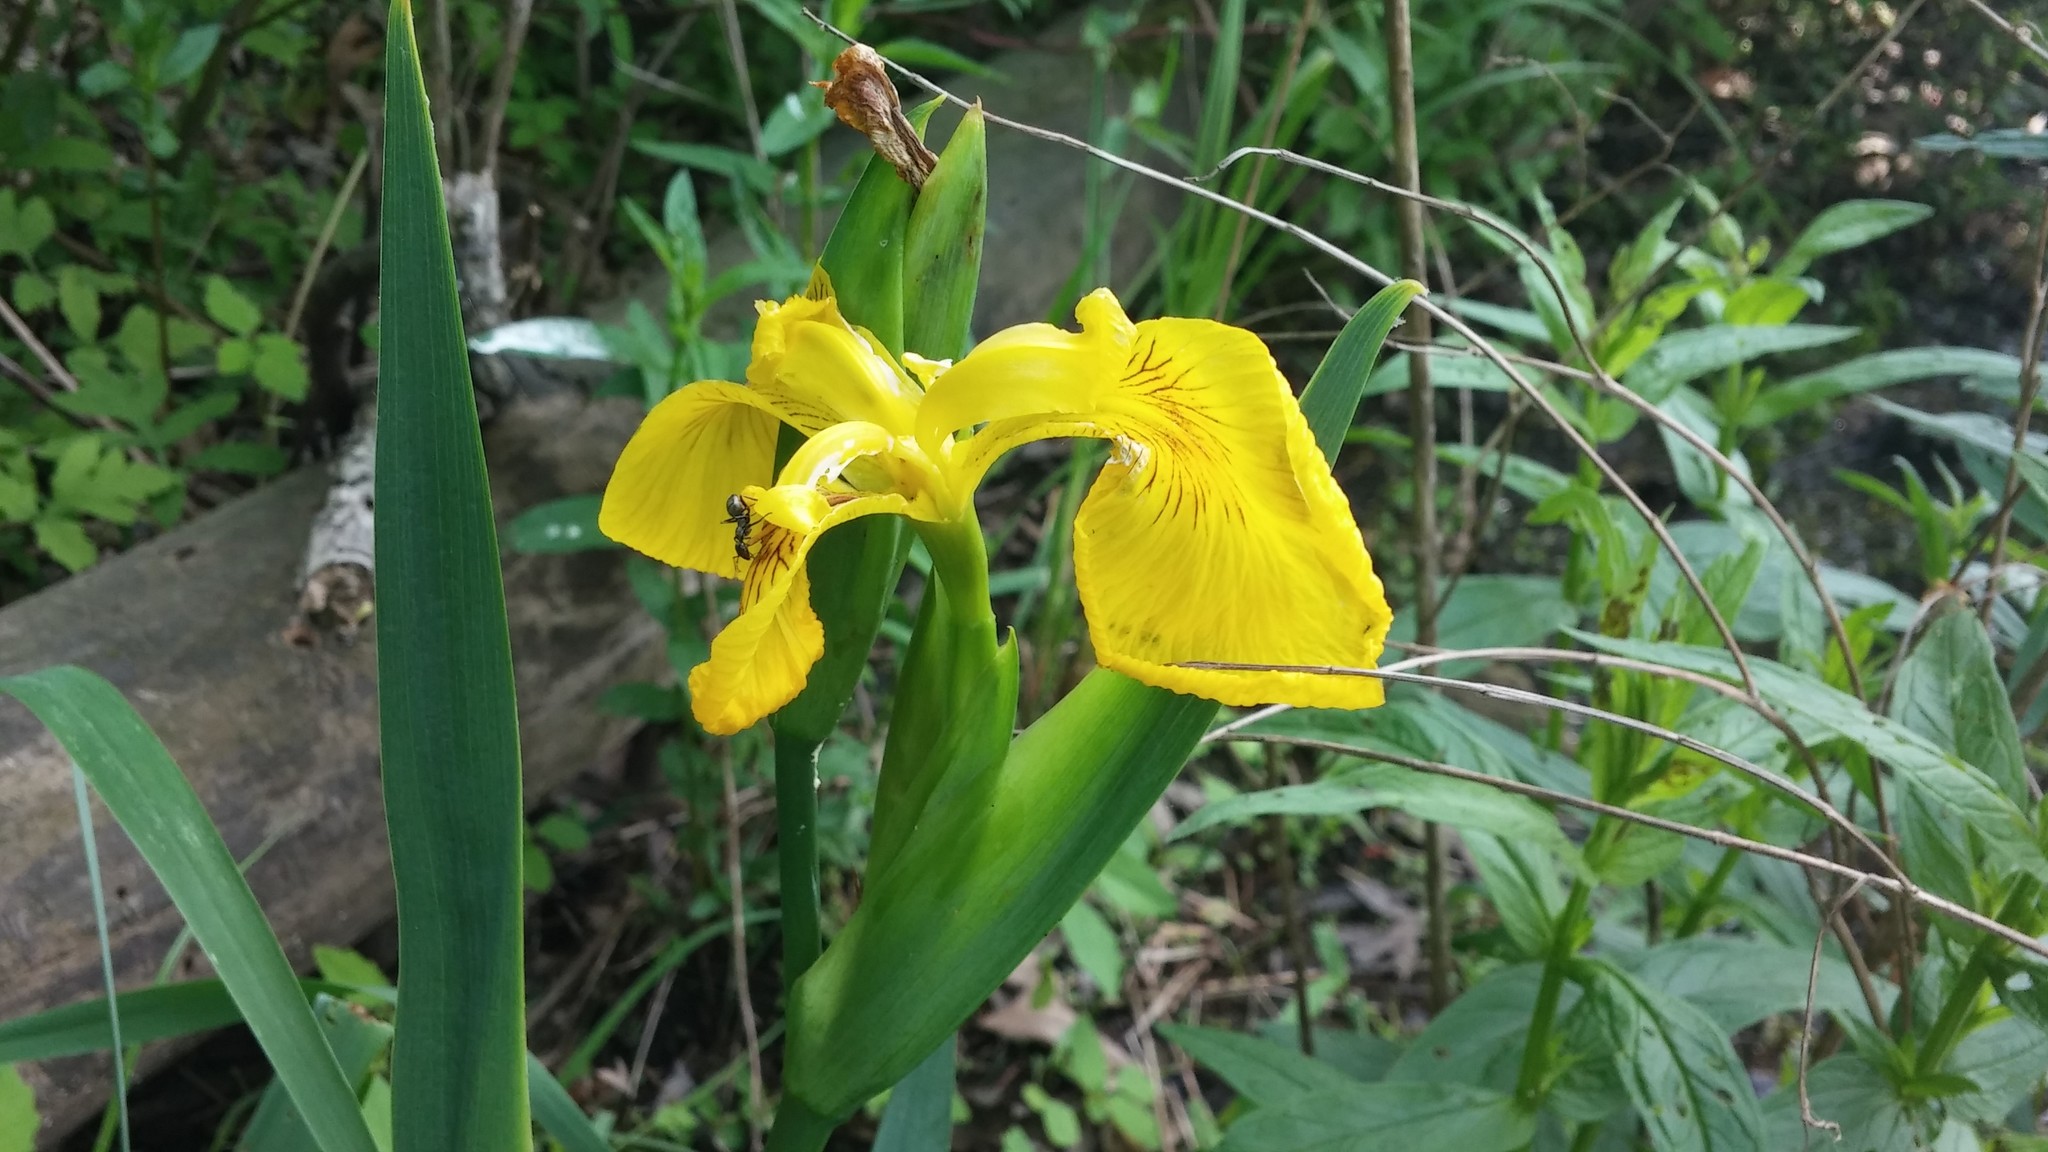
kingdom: Plantae
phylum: Tracheophyta
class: Liliopsida
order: Asparagales
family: Iridaceae
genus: Iris
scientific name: Iris pseudacorus
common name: Yellow flag
